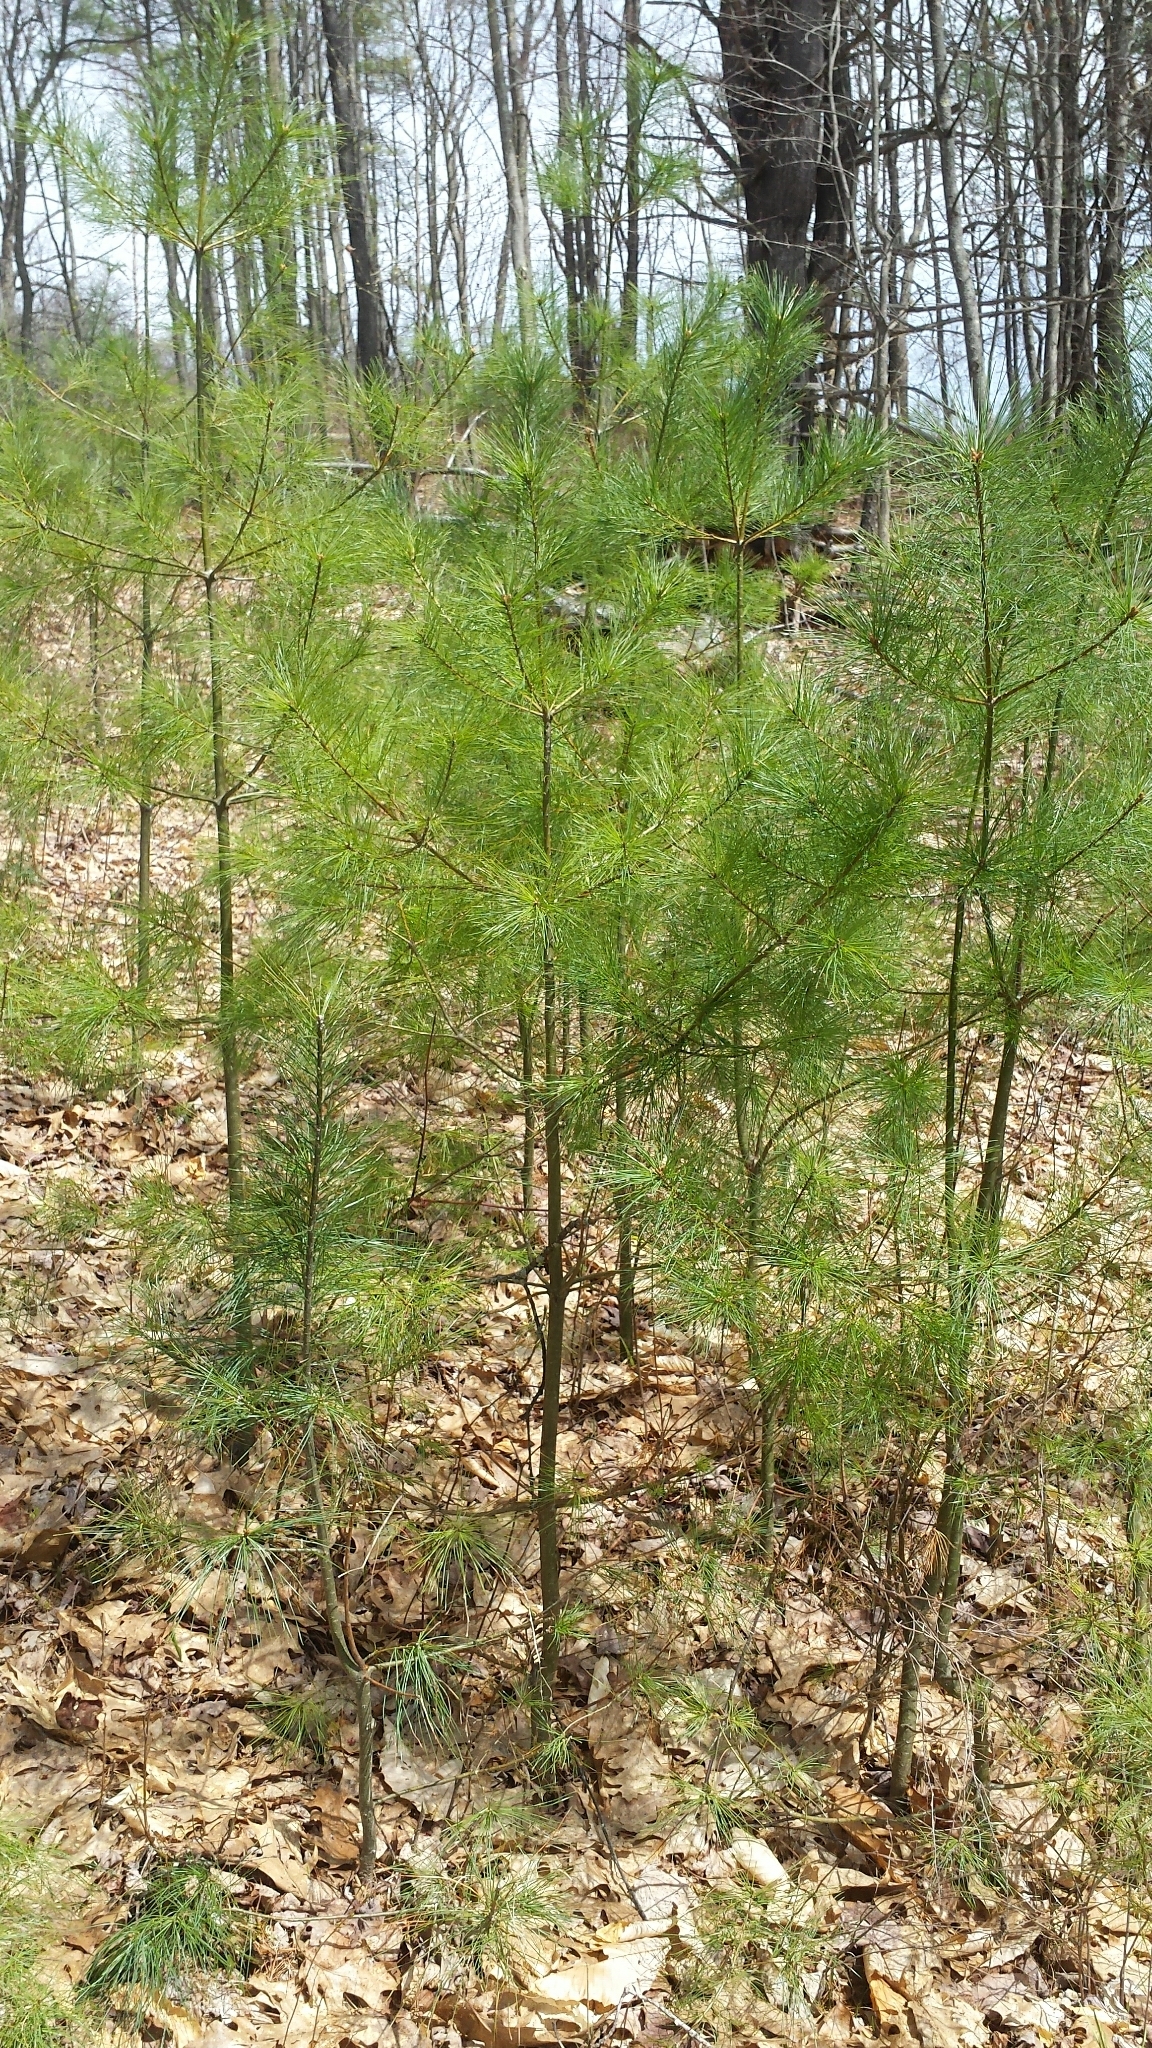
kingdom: Plantae
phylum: Tracheophyta
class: Pinopsida
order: Pinales
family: Pinaceae
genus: Pinus
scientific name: Pinus strobus
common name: Weymouth pine
